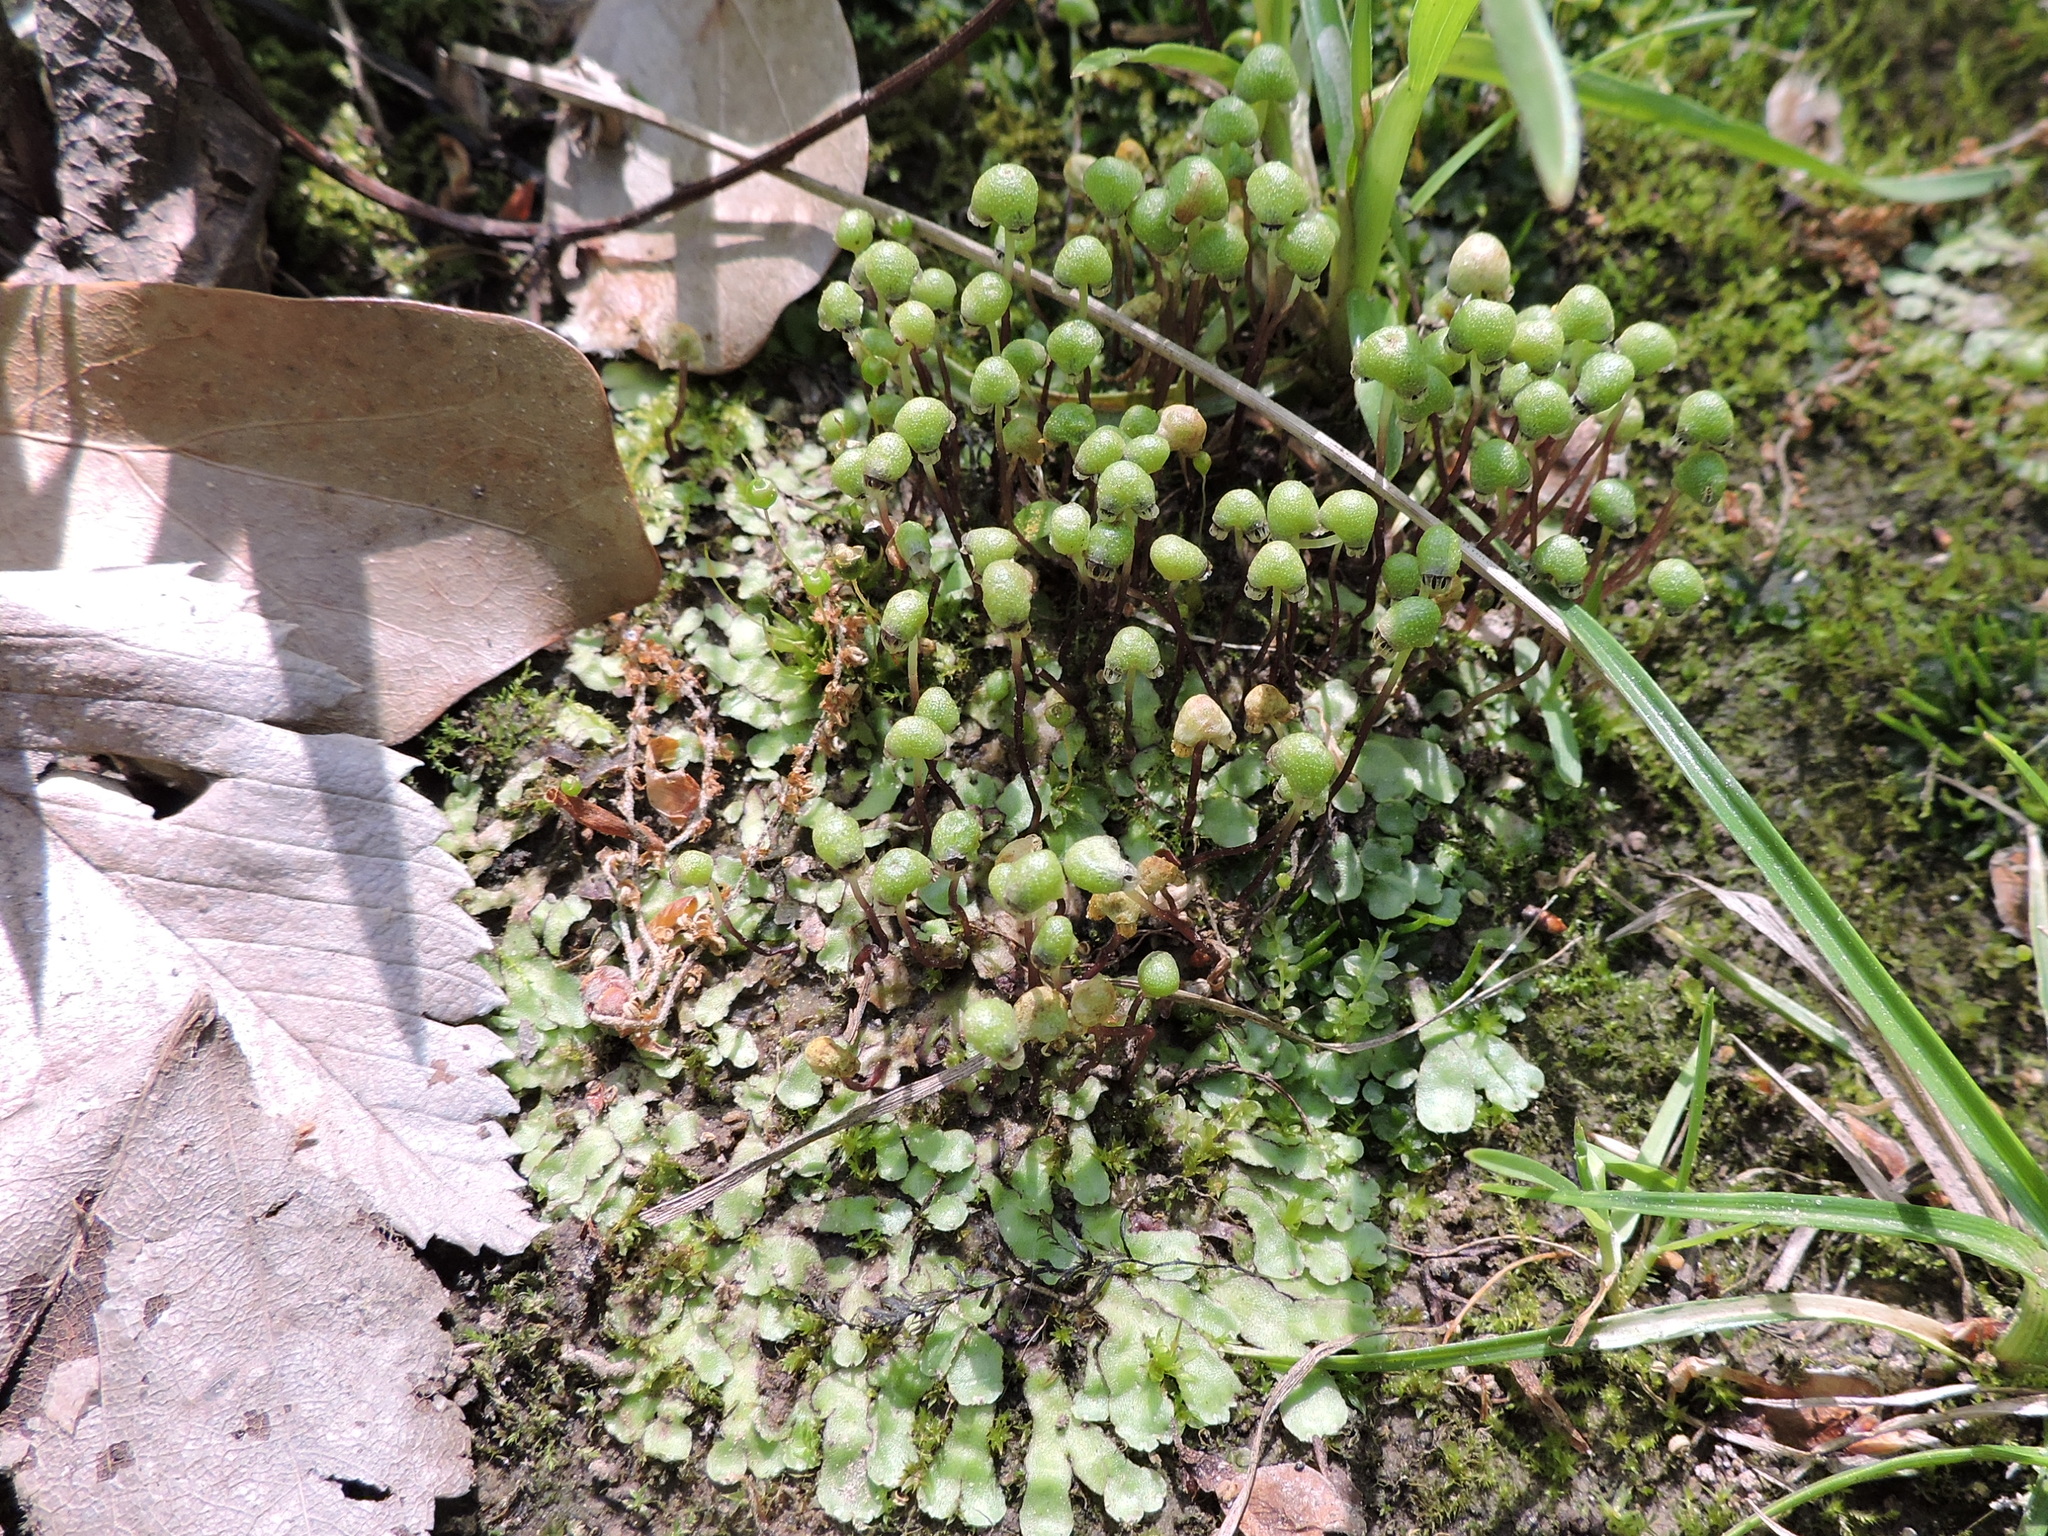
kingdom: Plantae
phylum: Marchantiophyta
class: Marchantiopsida
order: Marchantiales
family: Aytoniaceae
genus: Asterella
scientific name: Asterella tenella
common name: Delicate starwort
